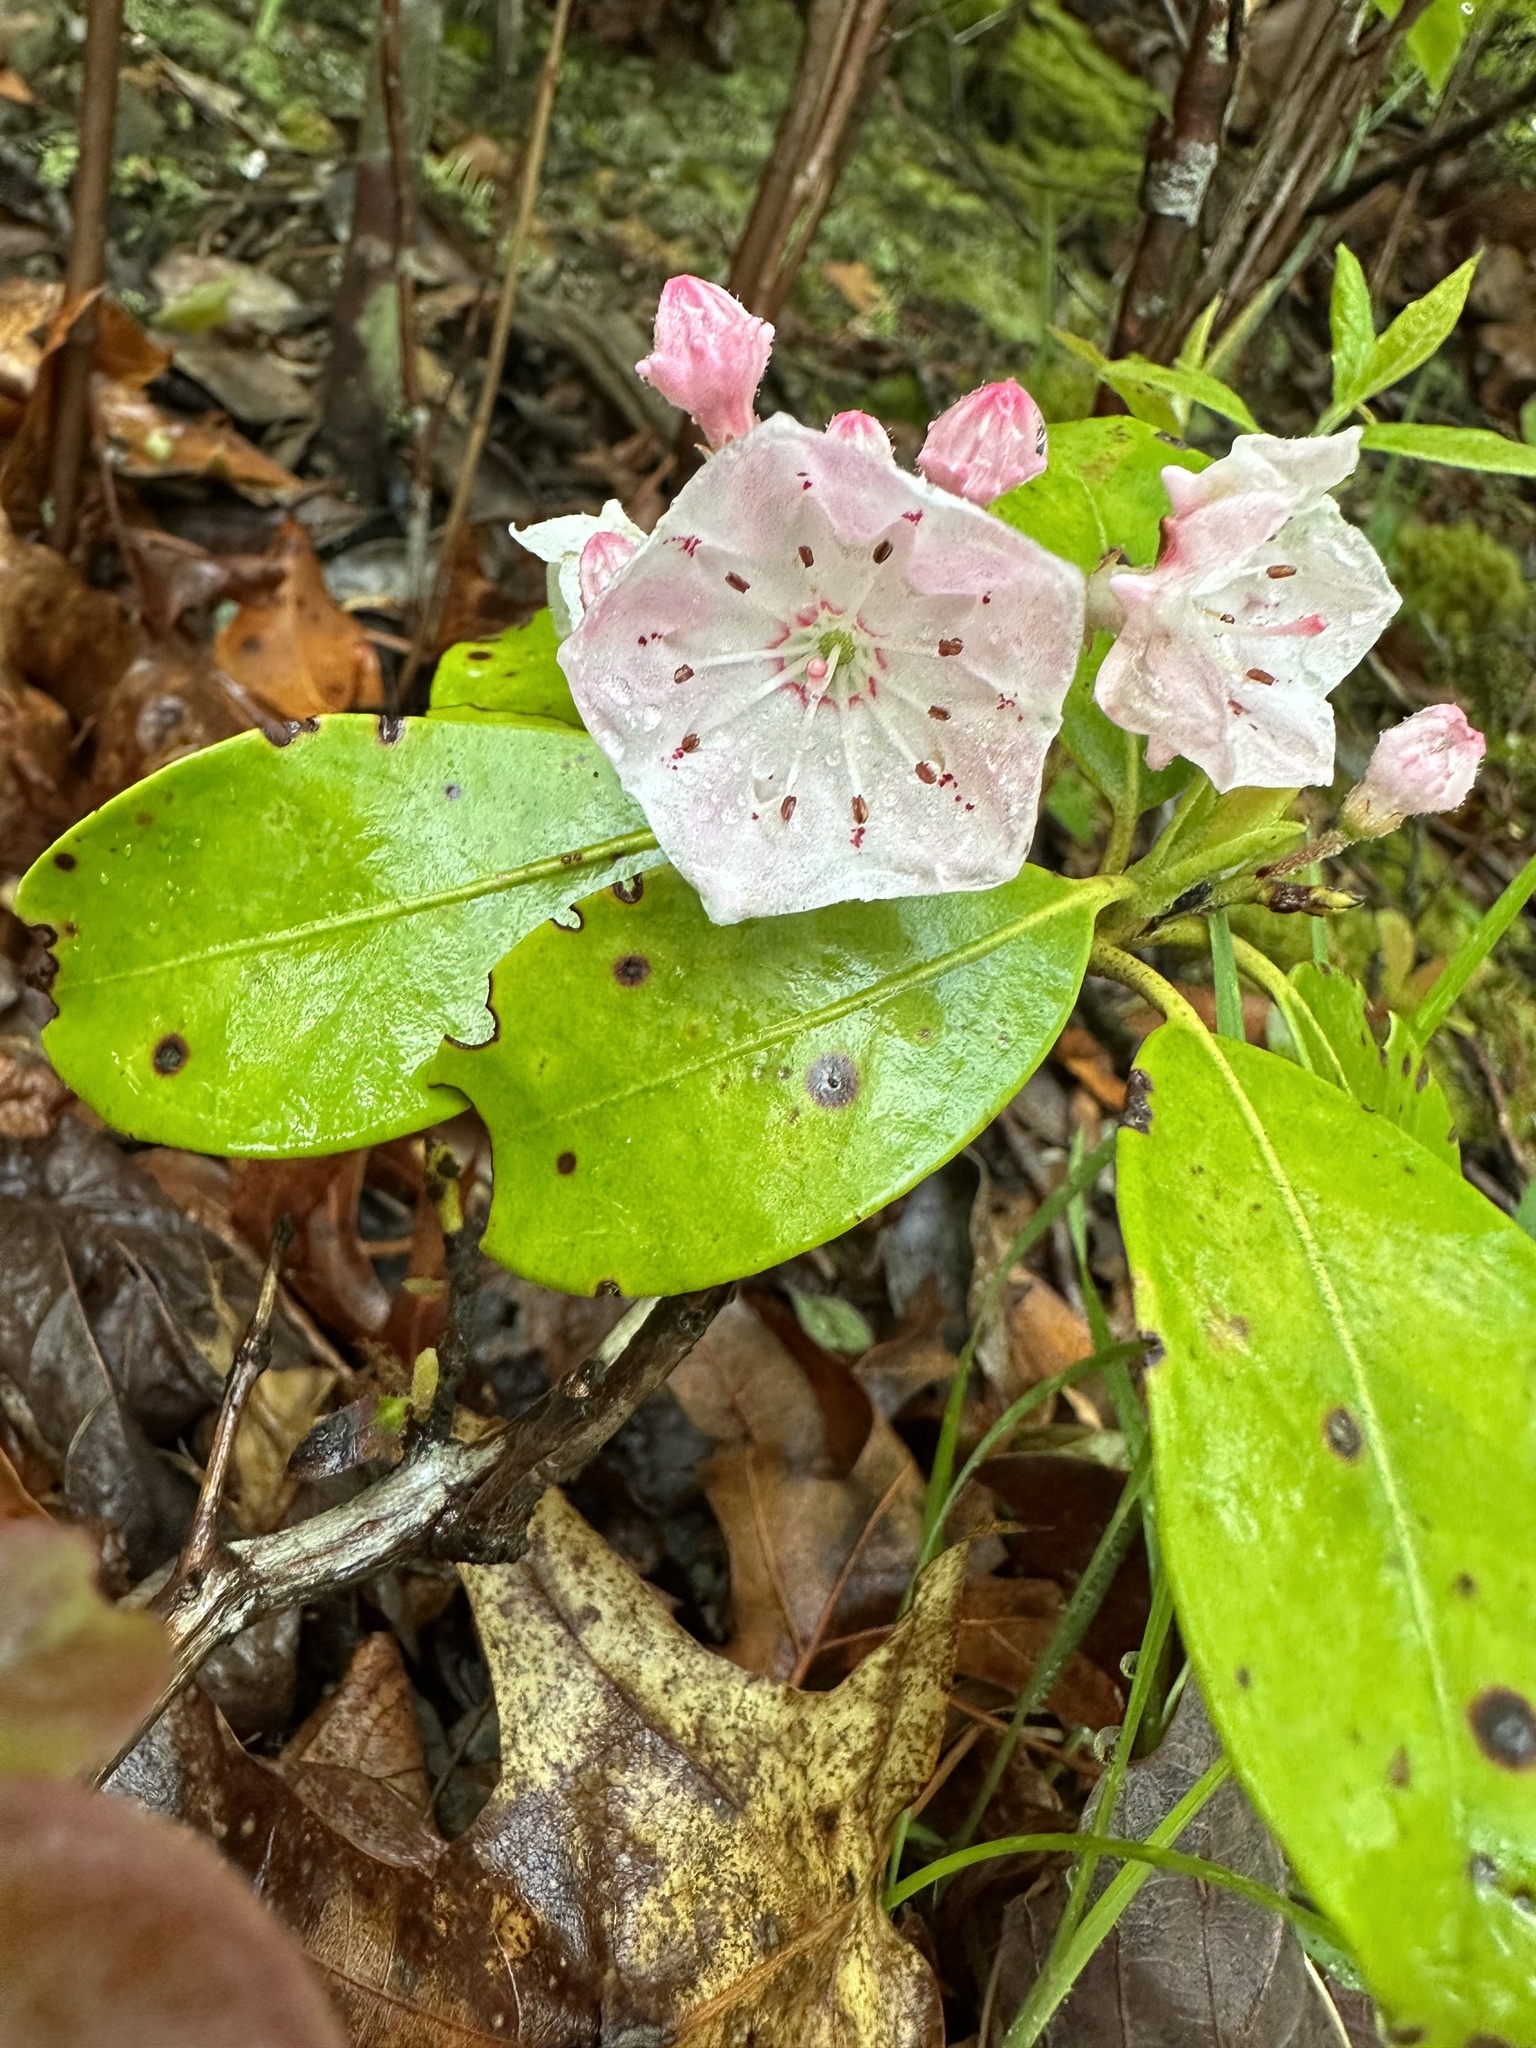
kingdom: Plantae
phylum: Tracheophyta
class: Magnoliopsida
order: Ericales
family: Ericaceae
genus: Kalmia
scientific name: Kalmia latifolia
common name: Mountain-laurel
